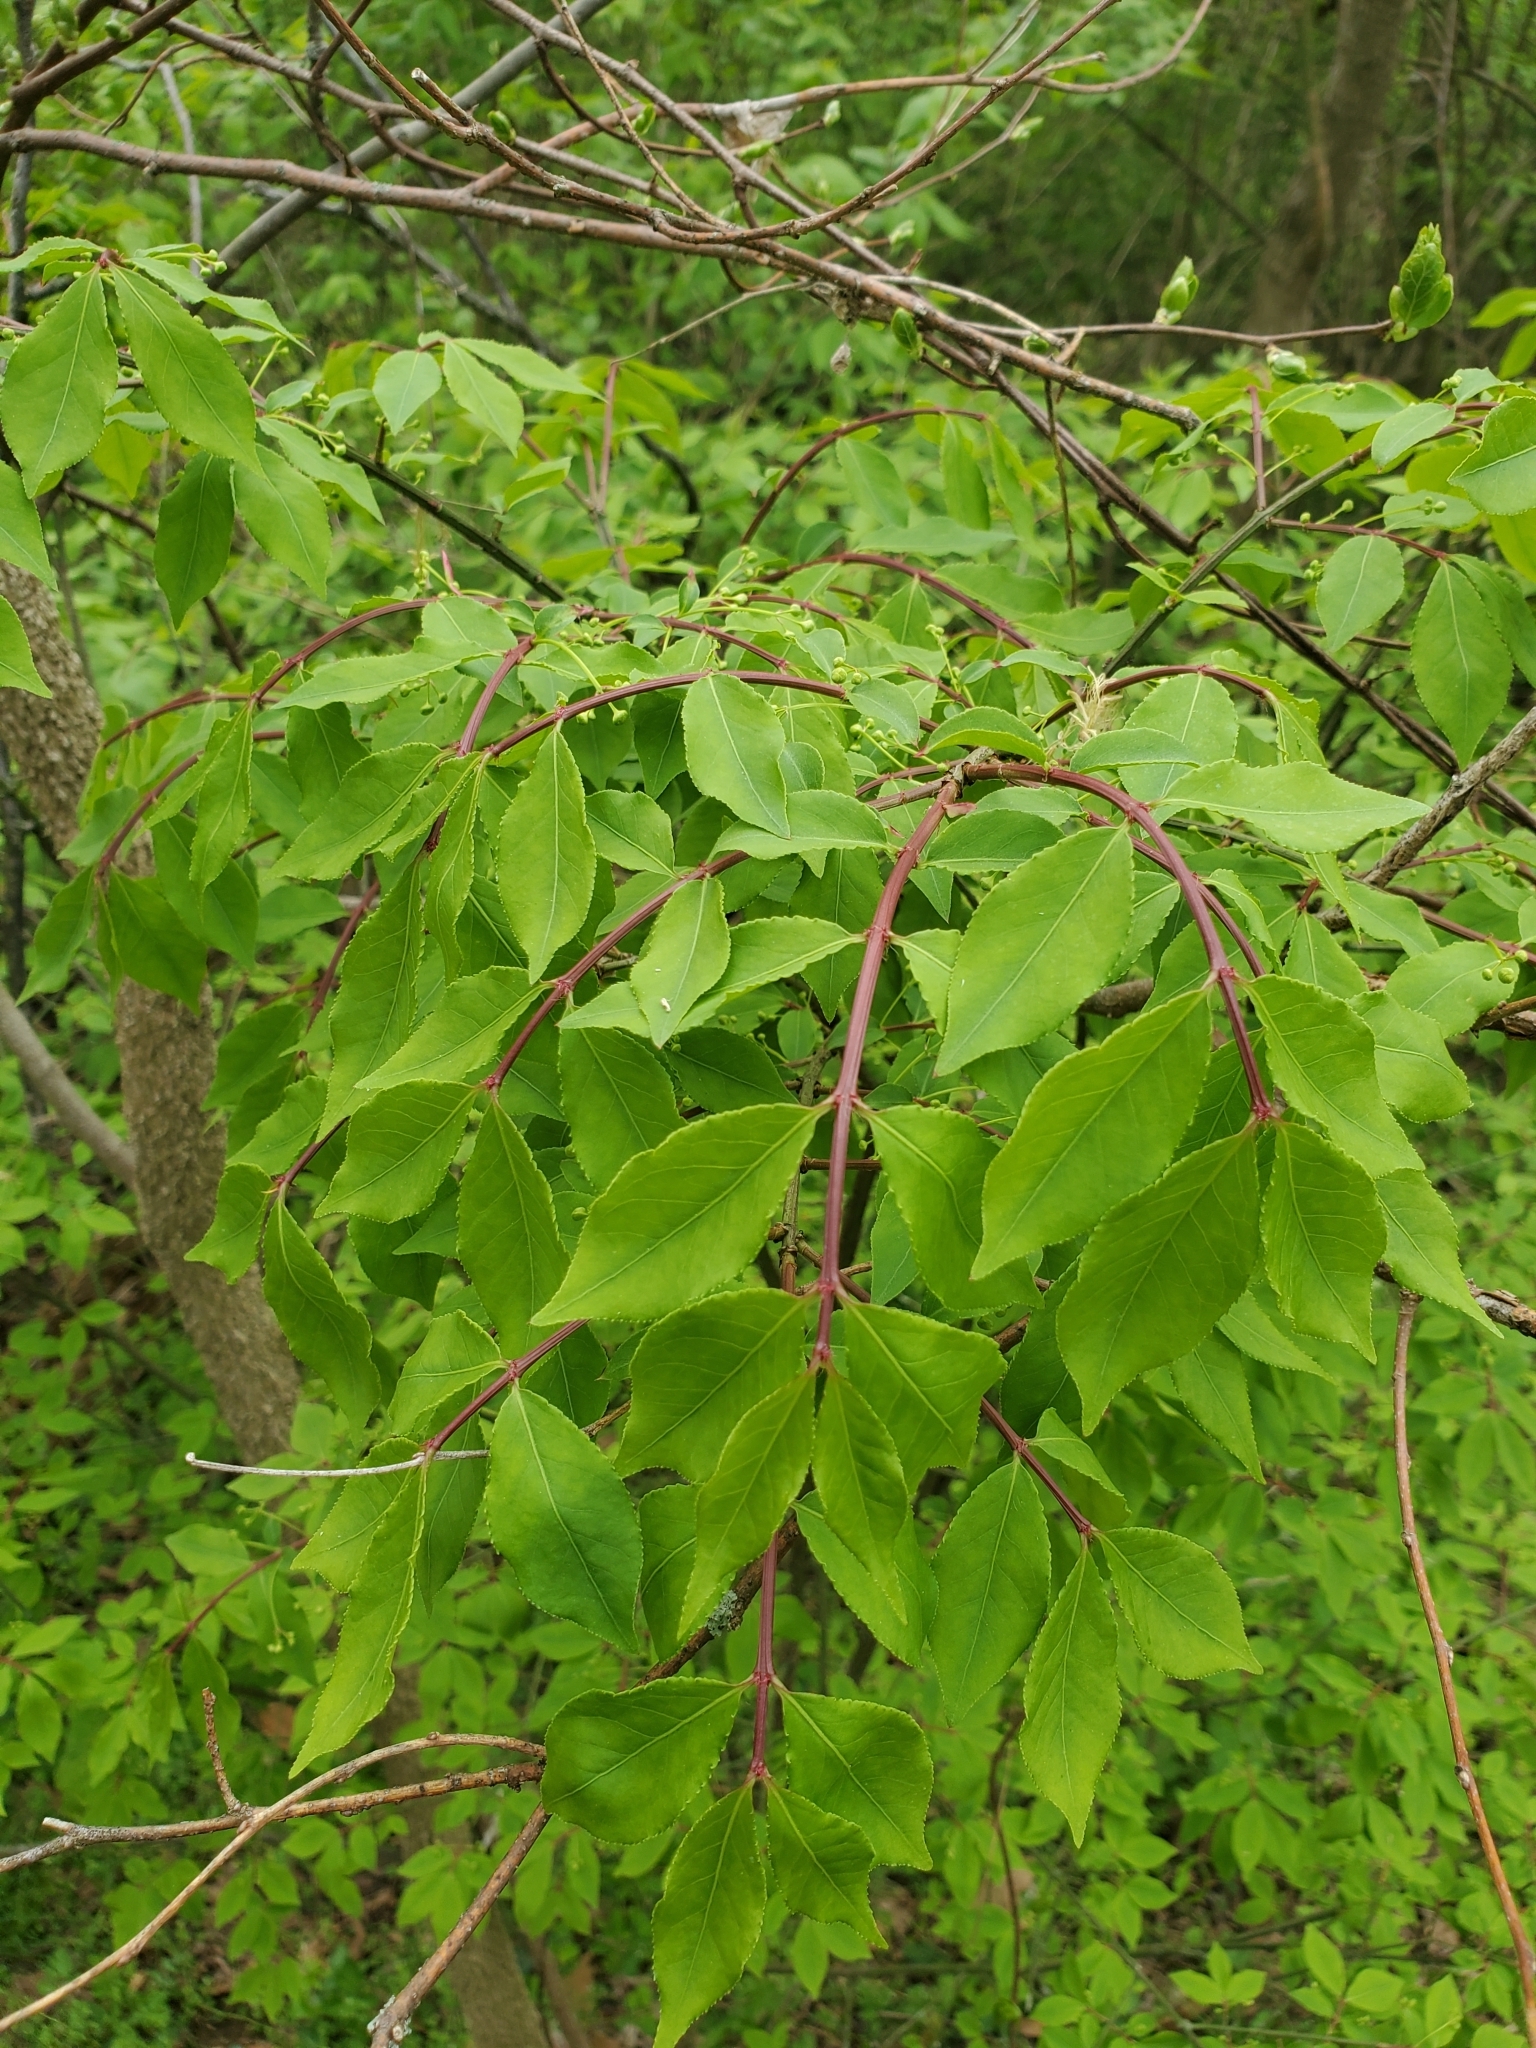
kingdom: Plantae
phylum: Tracheophyta
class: Magnoliopsida
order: Celastrales
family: Celastraceae
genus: Euonymus
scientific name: Euonymus alatus
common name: Winged euonymus
